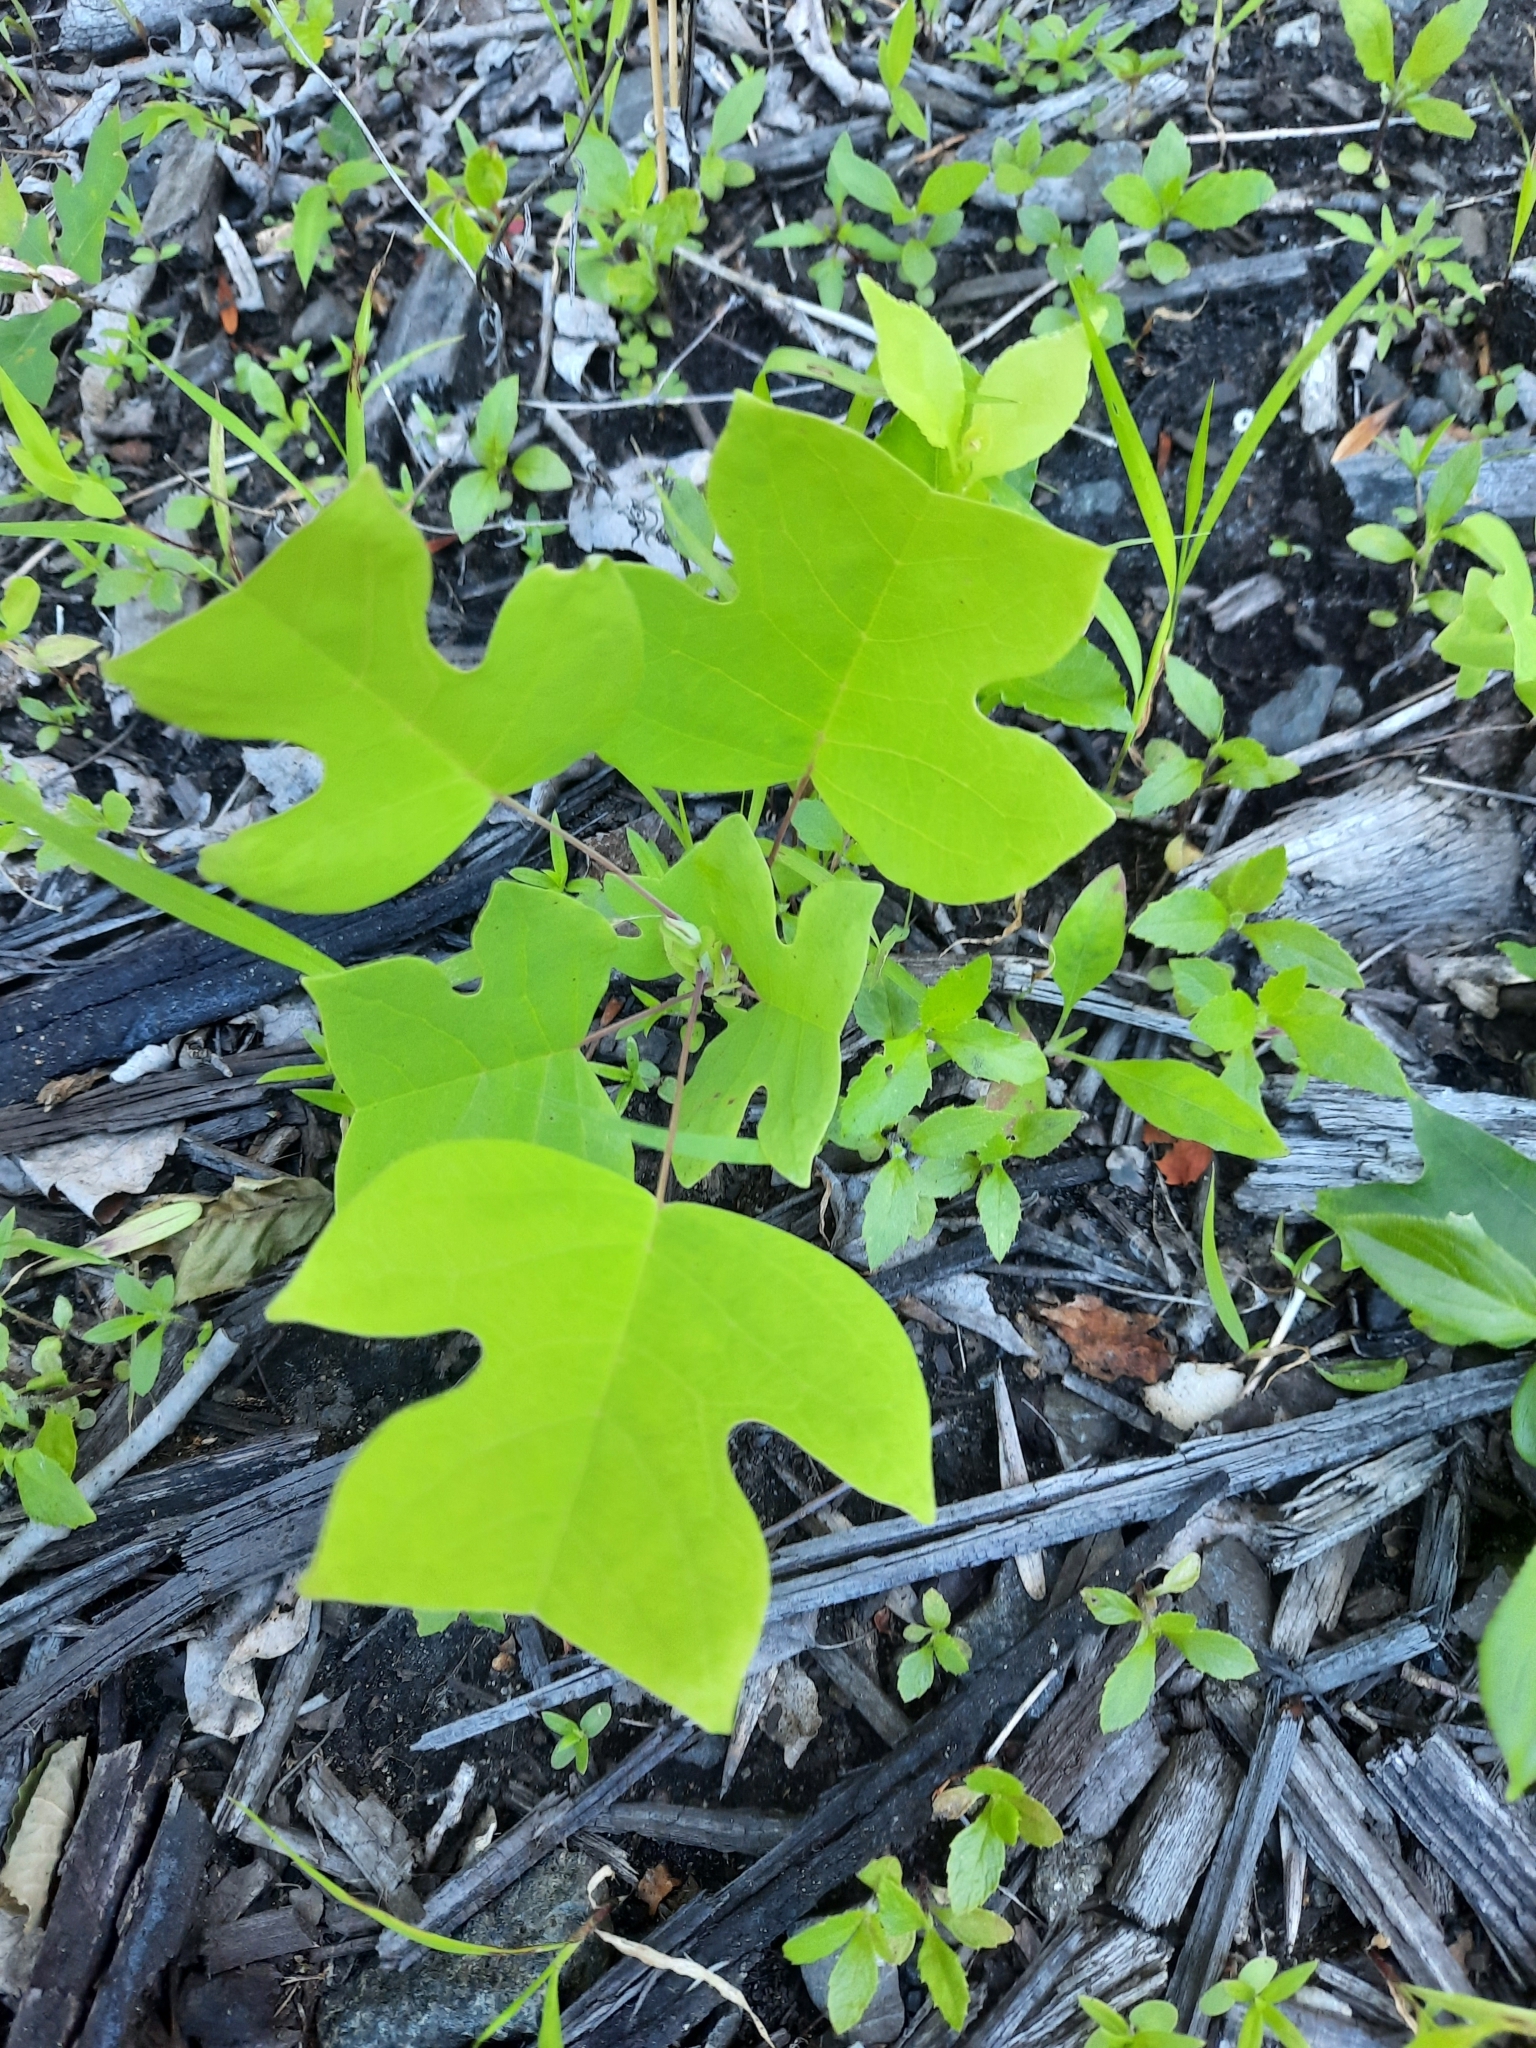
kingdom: Plantae
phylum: Tracheophyta
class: Magnoliopsida
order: Magnoliales
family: Magnoliaceae
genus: Liriodendron
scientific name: Liriodendron tulipifera
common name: Tulip tree
